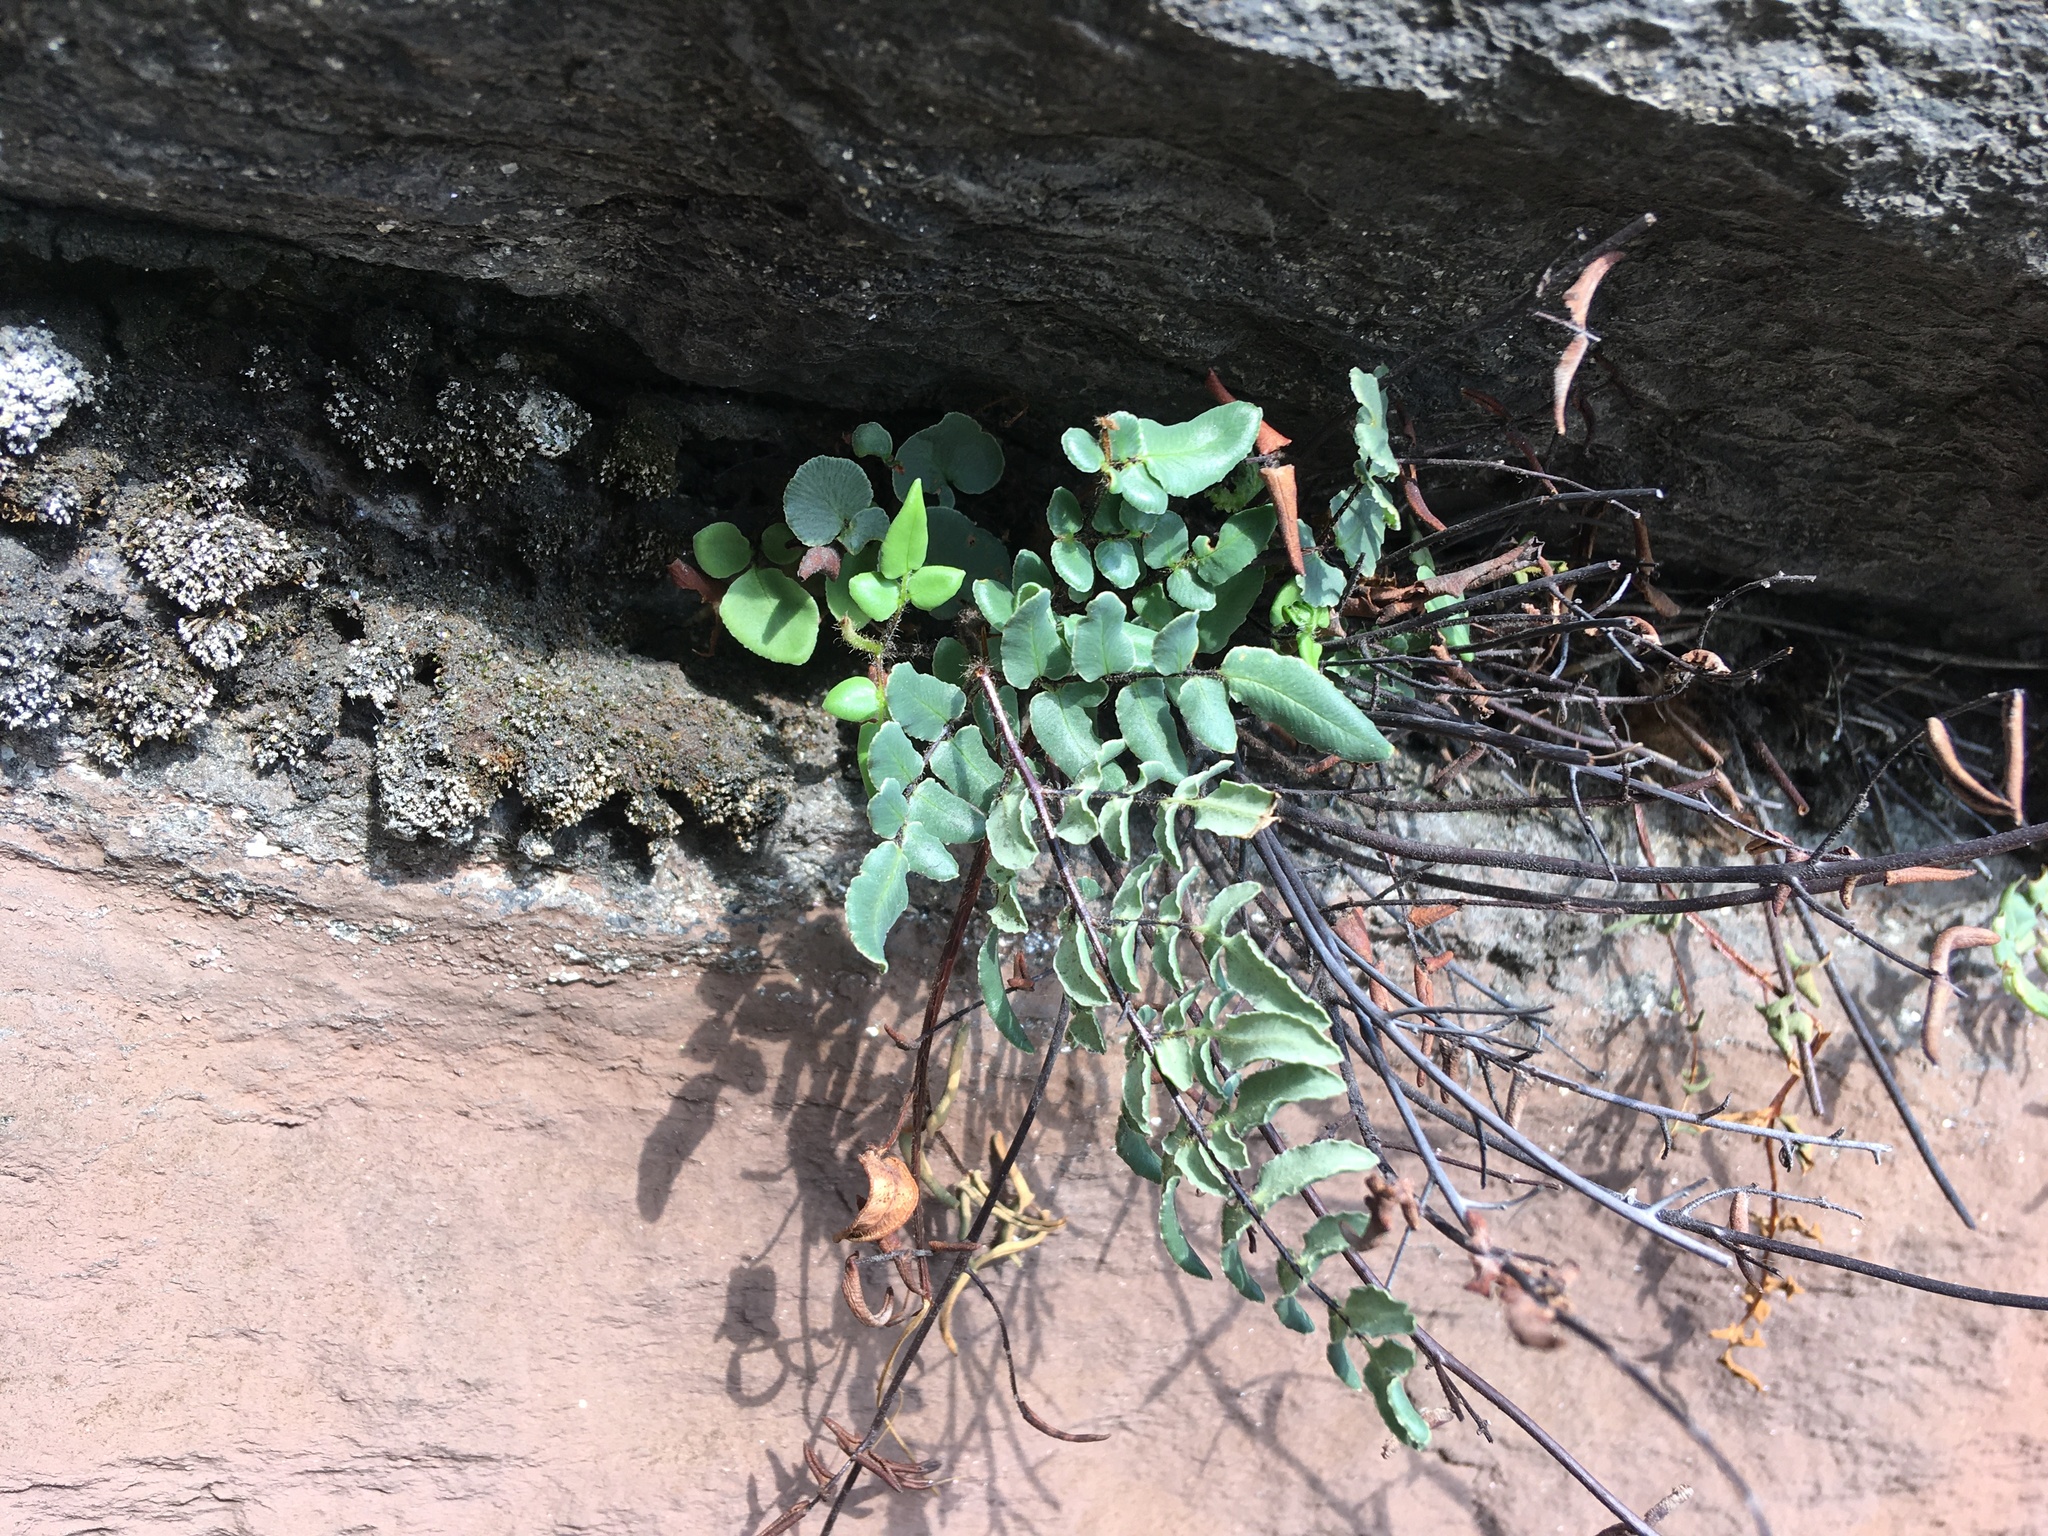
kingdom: Plantae
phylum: Tracheophyta
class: Polypodiopsida
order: Polypodiales
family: Pteridaceae
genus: Pellaea
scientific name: Pellaea atropurpurea
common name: Hairy cliffbrake
